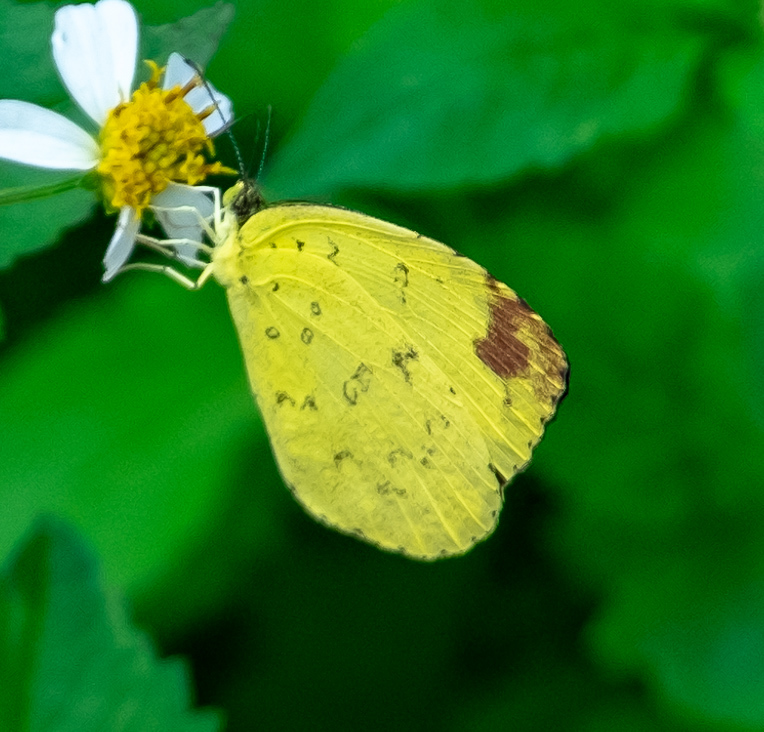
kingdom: Animalia
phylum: Arthropoda
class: Insecta
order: Lepidoptera
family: Pieridae
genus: Eurema
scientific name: Eurema blanda
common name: Three-spot grass yellow
